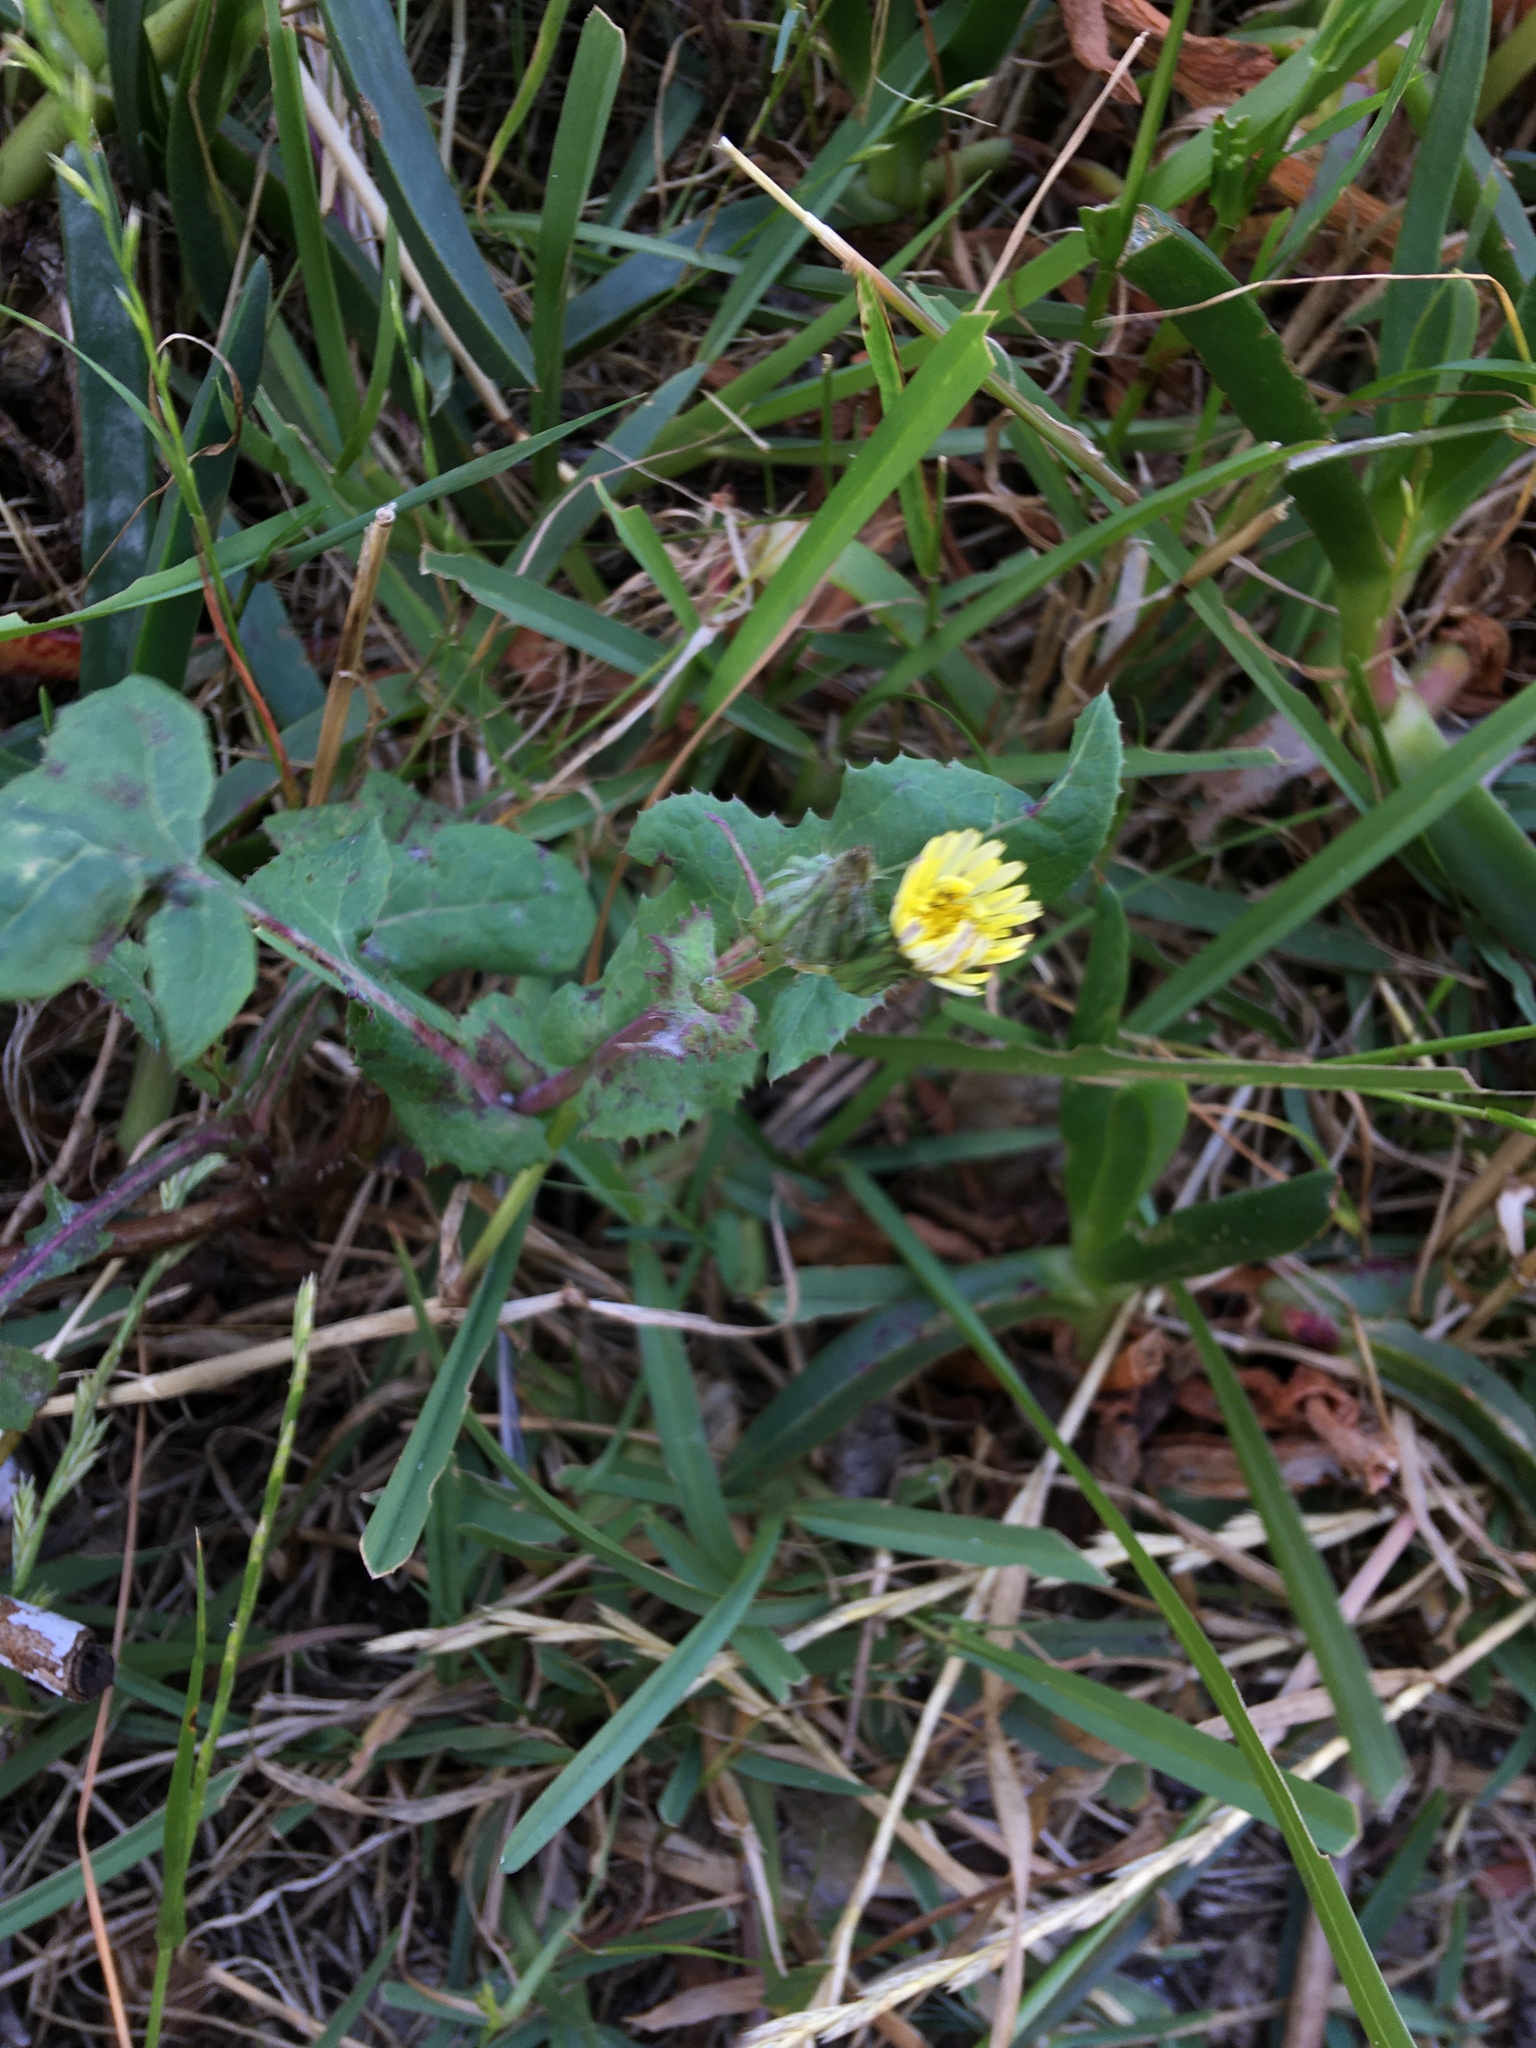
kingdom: Plantae
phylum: Tracheophyta
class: Magnoliopsida
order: Asterales
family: Asteraceae
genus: Sonchus
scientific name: Sonchus oleraceus
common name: Common sowthistle
